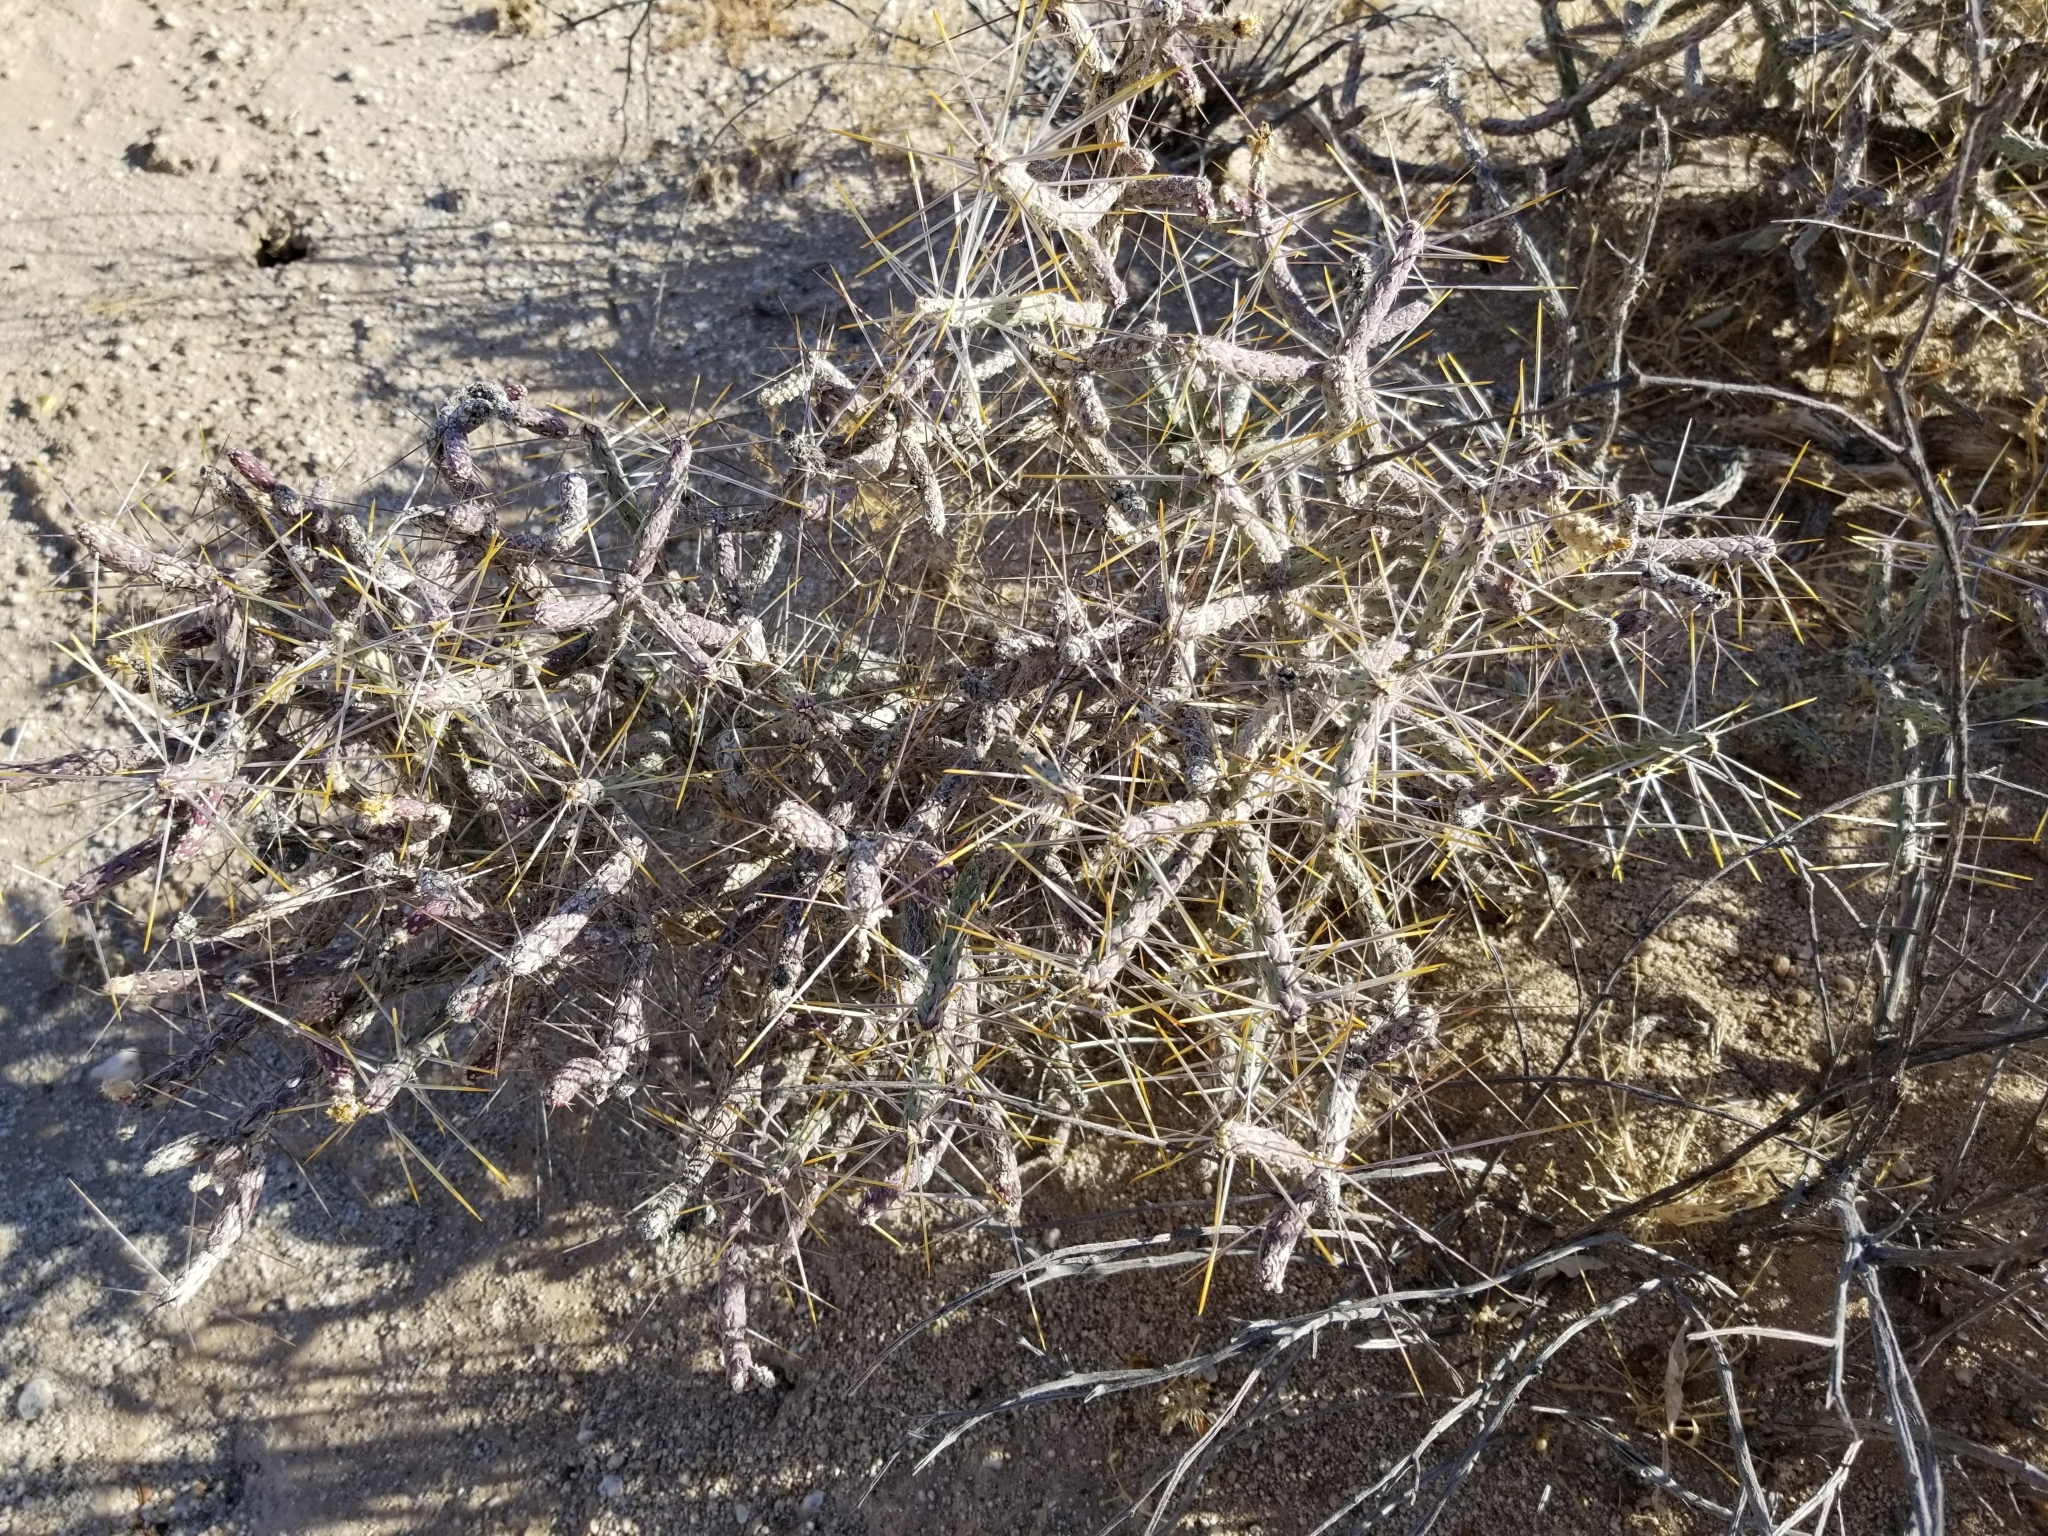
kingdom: Plantae
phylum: Tracheophyta
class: Magnoliopsida
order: Caryophyllales
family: Cactaceae
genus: Cylindropuntia
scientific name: Cylindropuntia ramosissima
